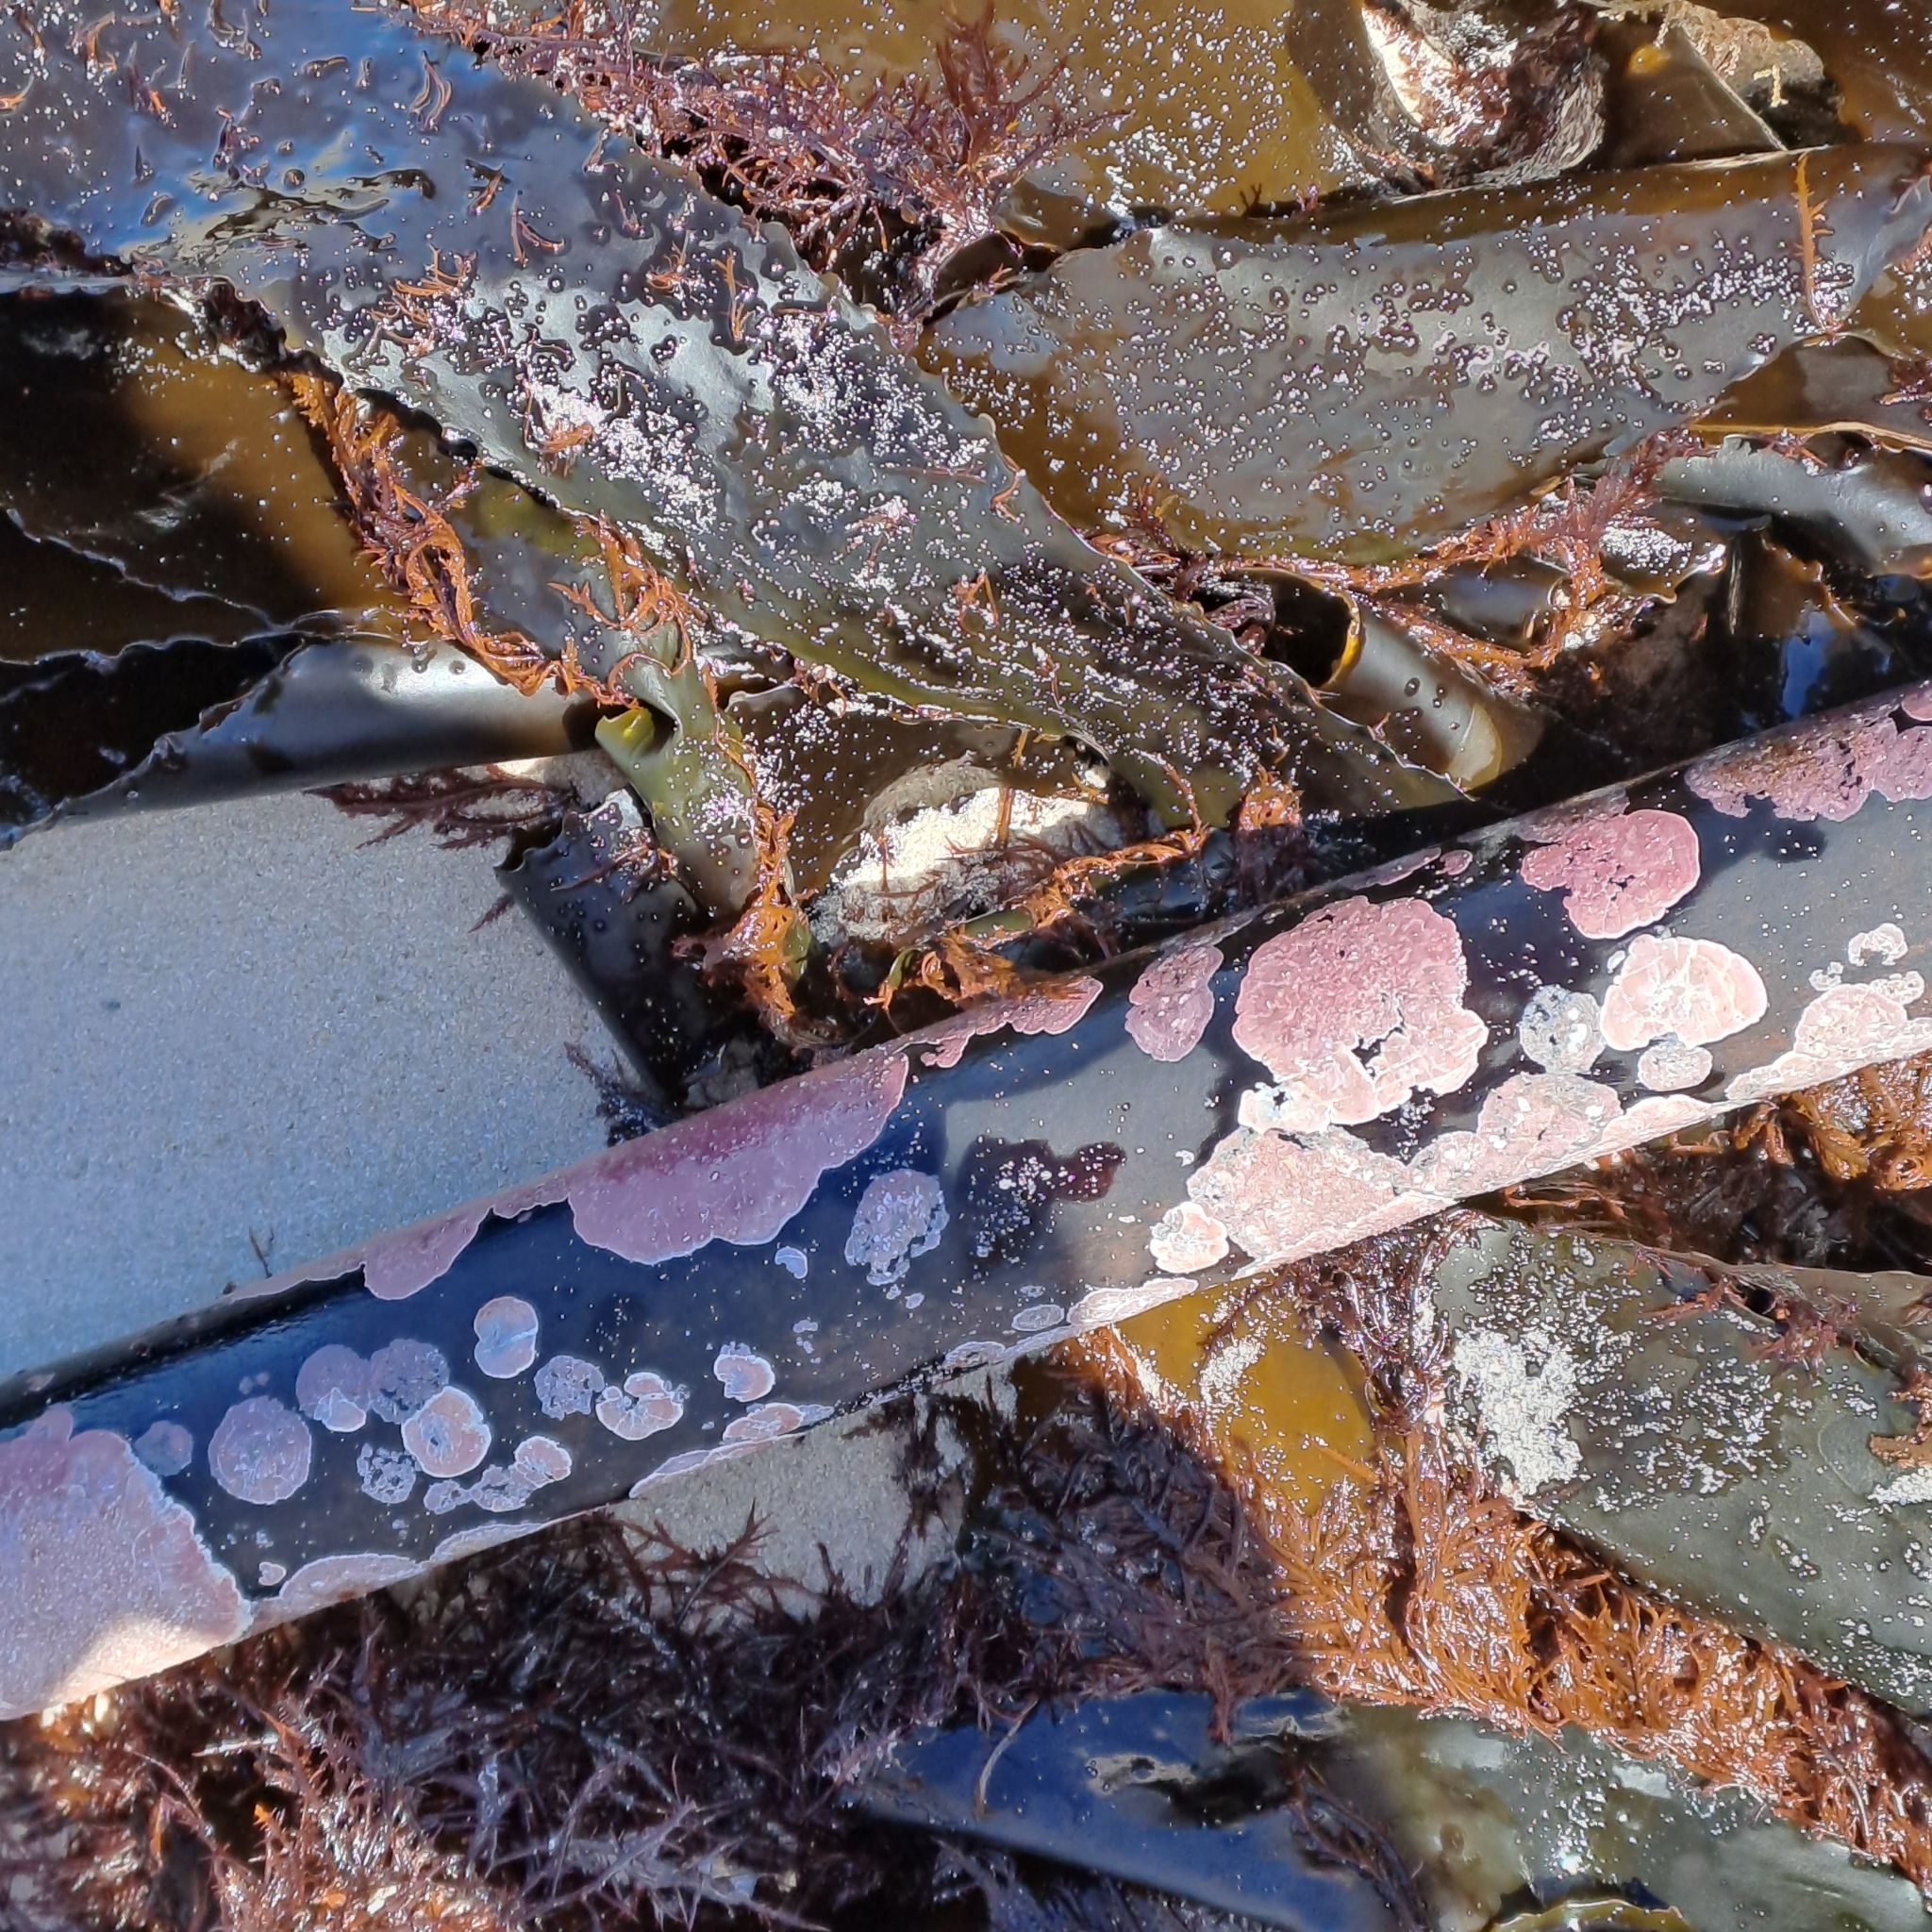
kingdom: Chromista
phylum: Ochrophyta
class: Phaeophyceae
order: Laminariales
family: Lessoniaceae
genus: Ecklonia
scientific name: Ecklonia
